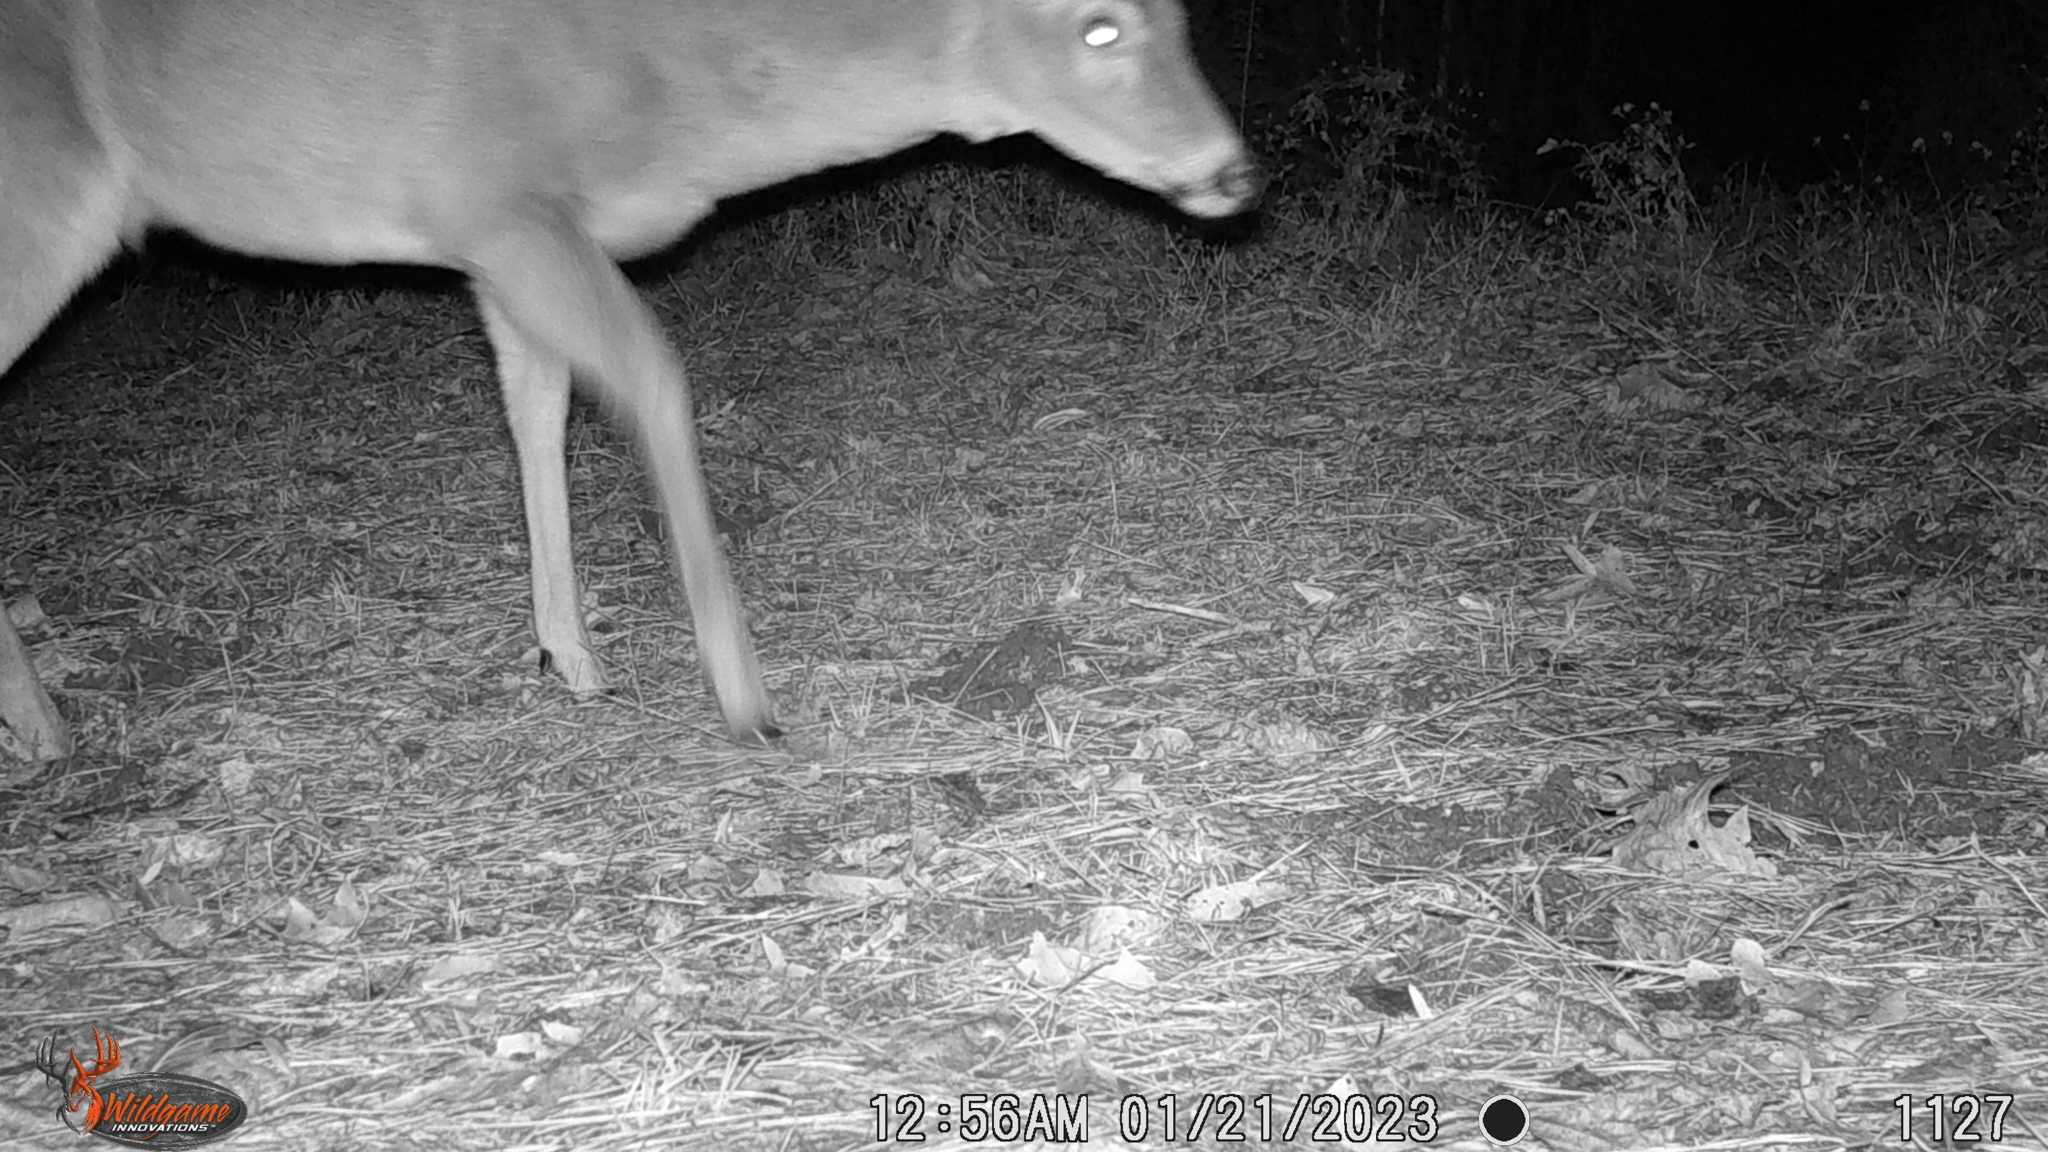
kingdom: Animalia
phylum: Chordata
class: Mammalia
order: Artiodactyla
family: Cervidae
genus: Odocoileus
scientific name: Odocoileus virginianus
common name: White-tailed deer
